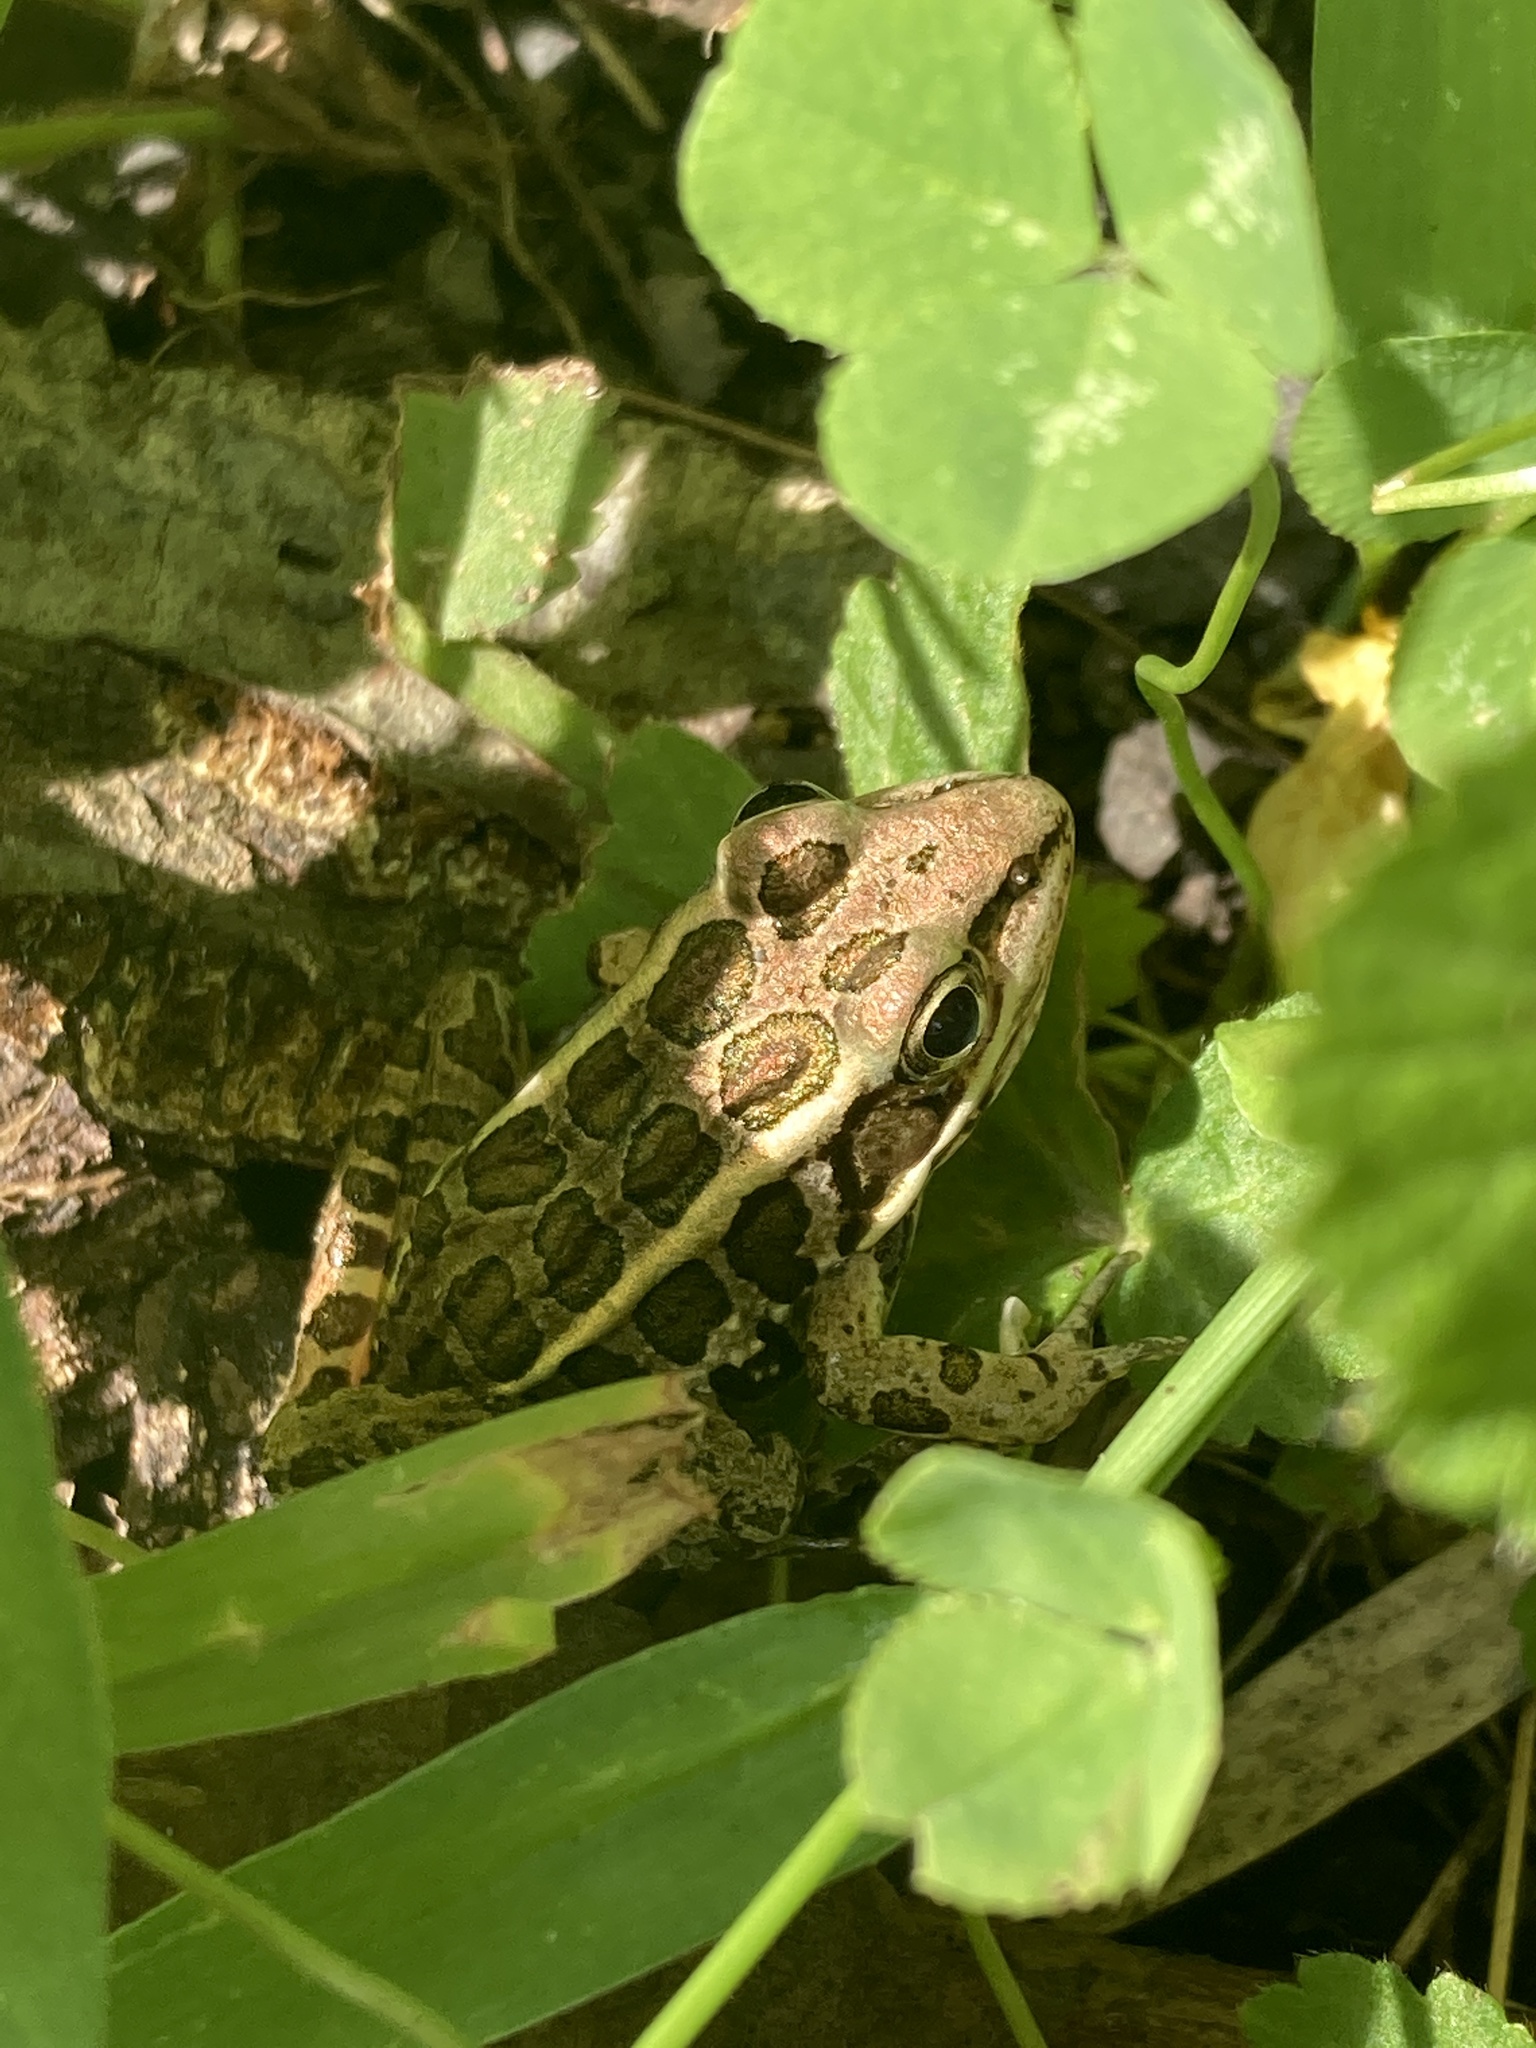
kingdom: Animalia
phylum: Chordata
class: Amphibia
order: Anura
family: Ranidae
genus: Lithobates
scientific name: Lithobates palustris
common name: Pickerel frog
